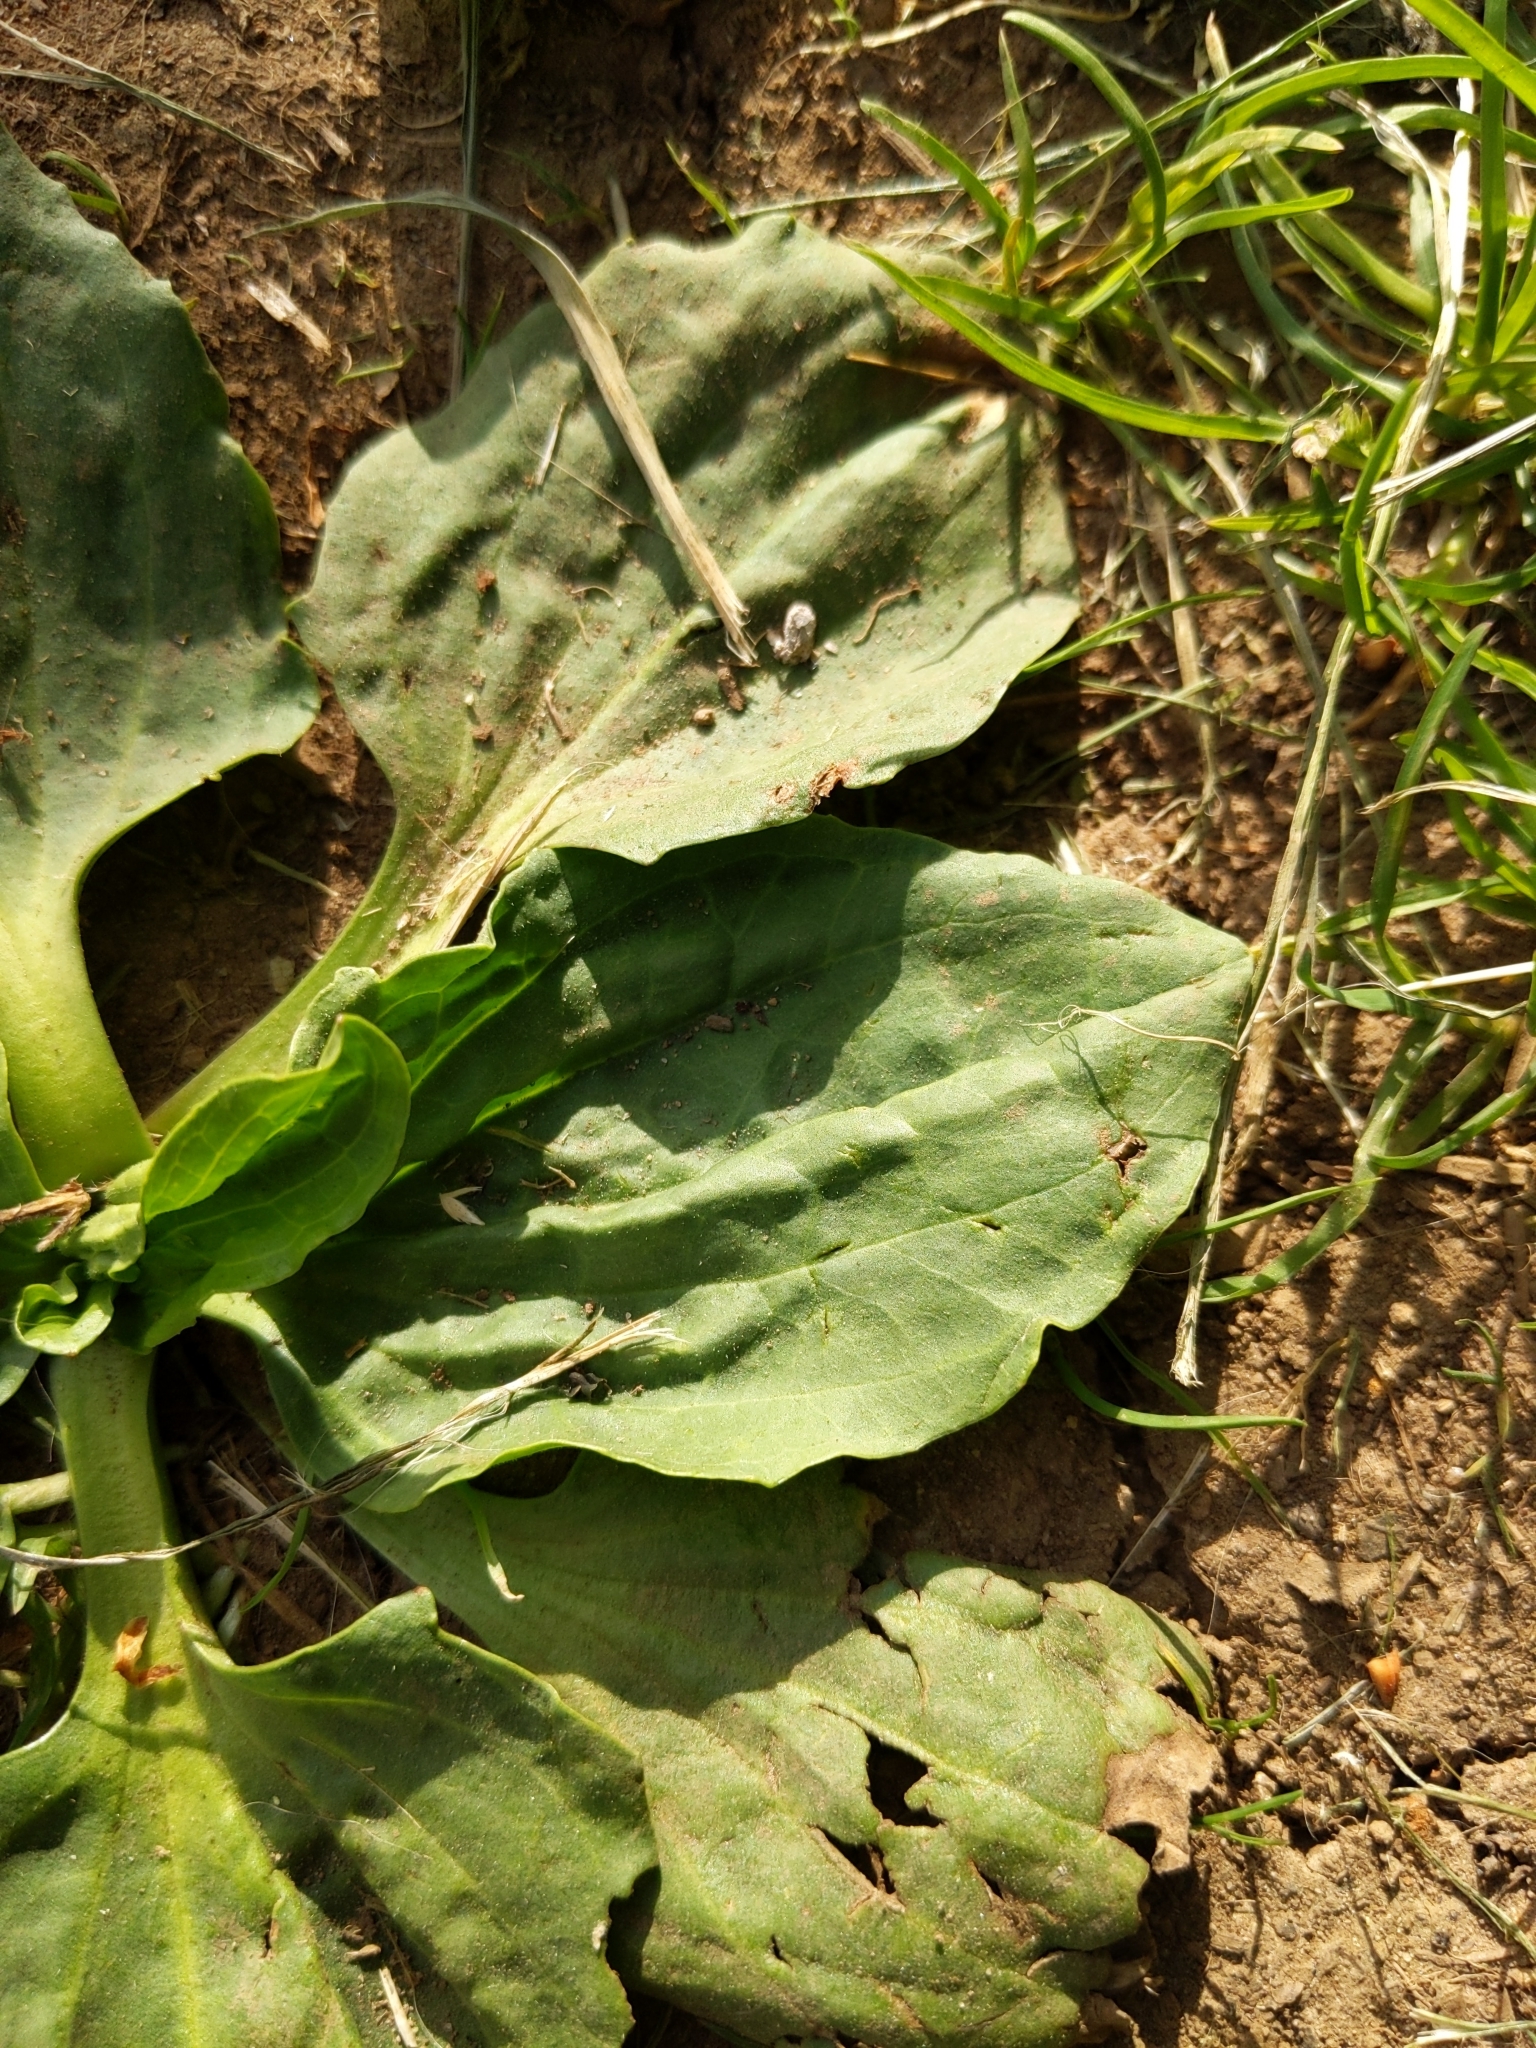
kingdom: Plantae
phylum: Tracheophyta
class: Magnoliopsida
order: Lamiales
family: Plantaginaceae
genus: Plantago
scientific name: Plantago major
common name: Common plantain
